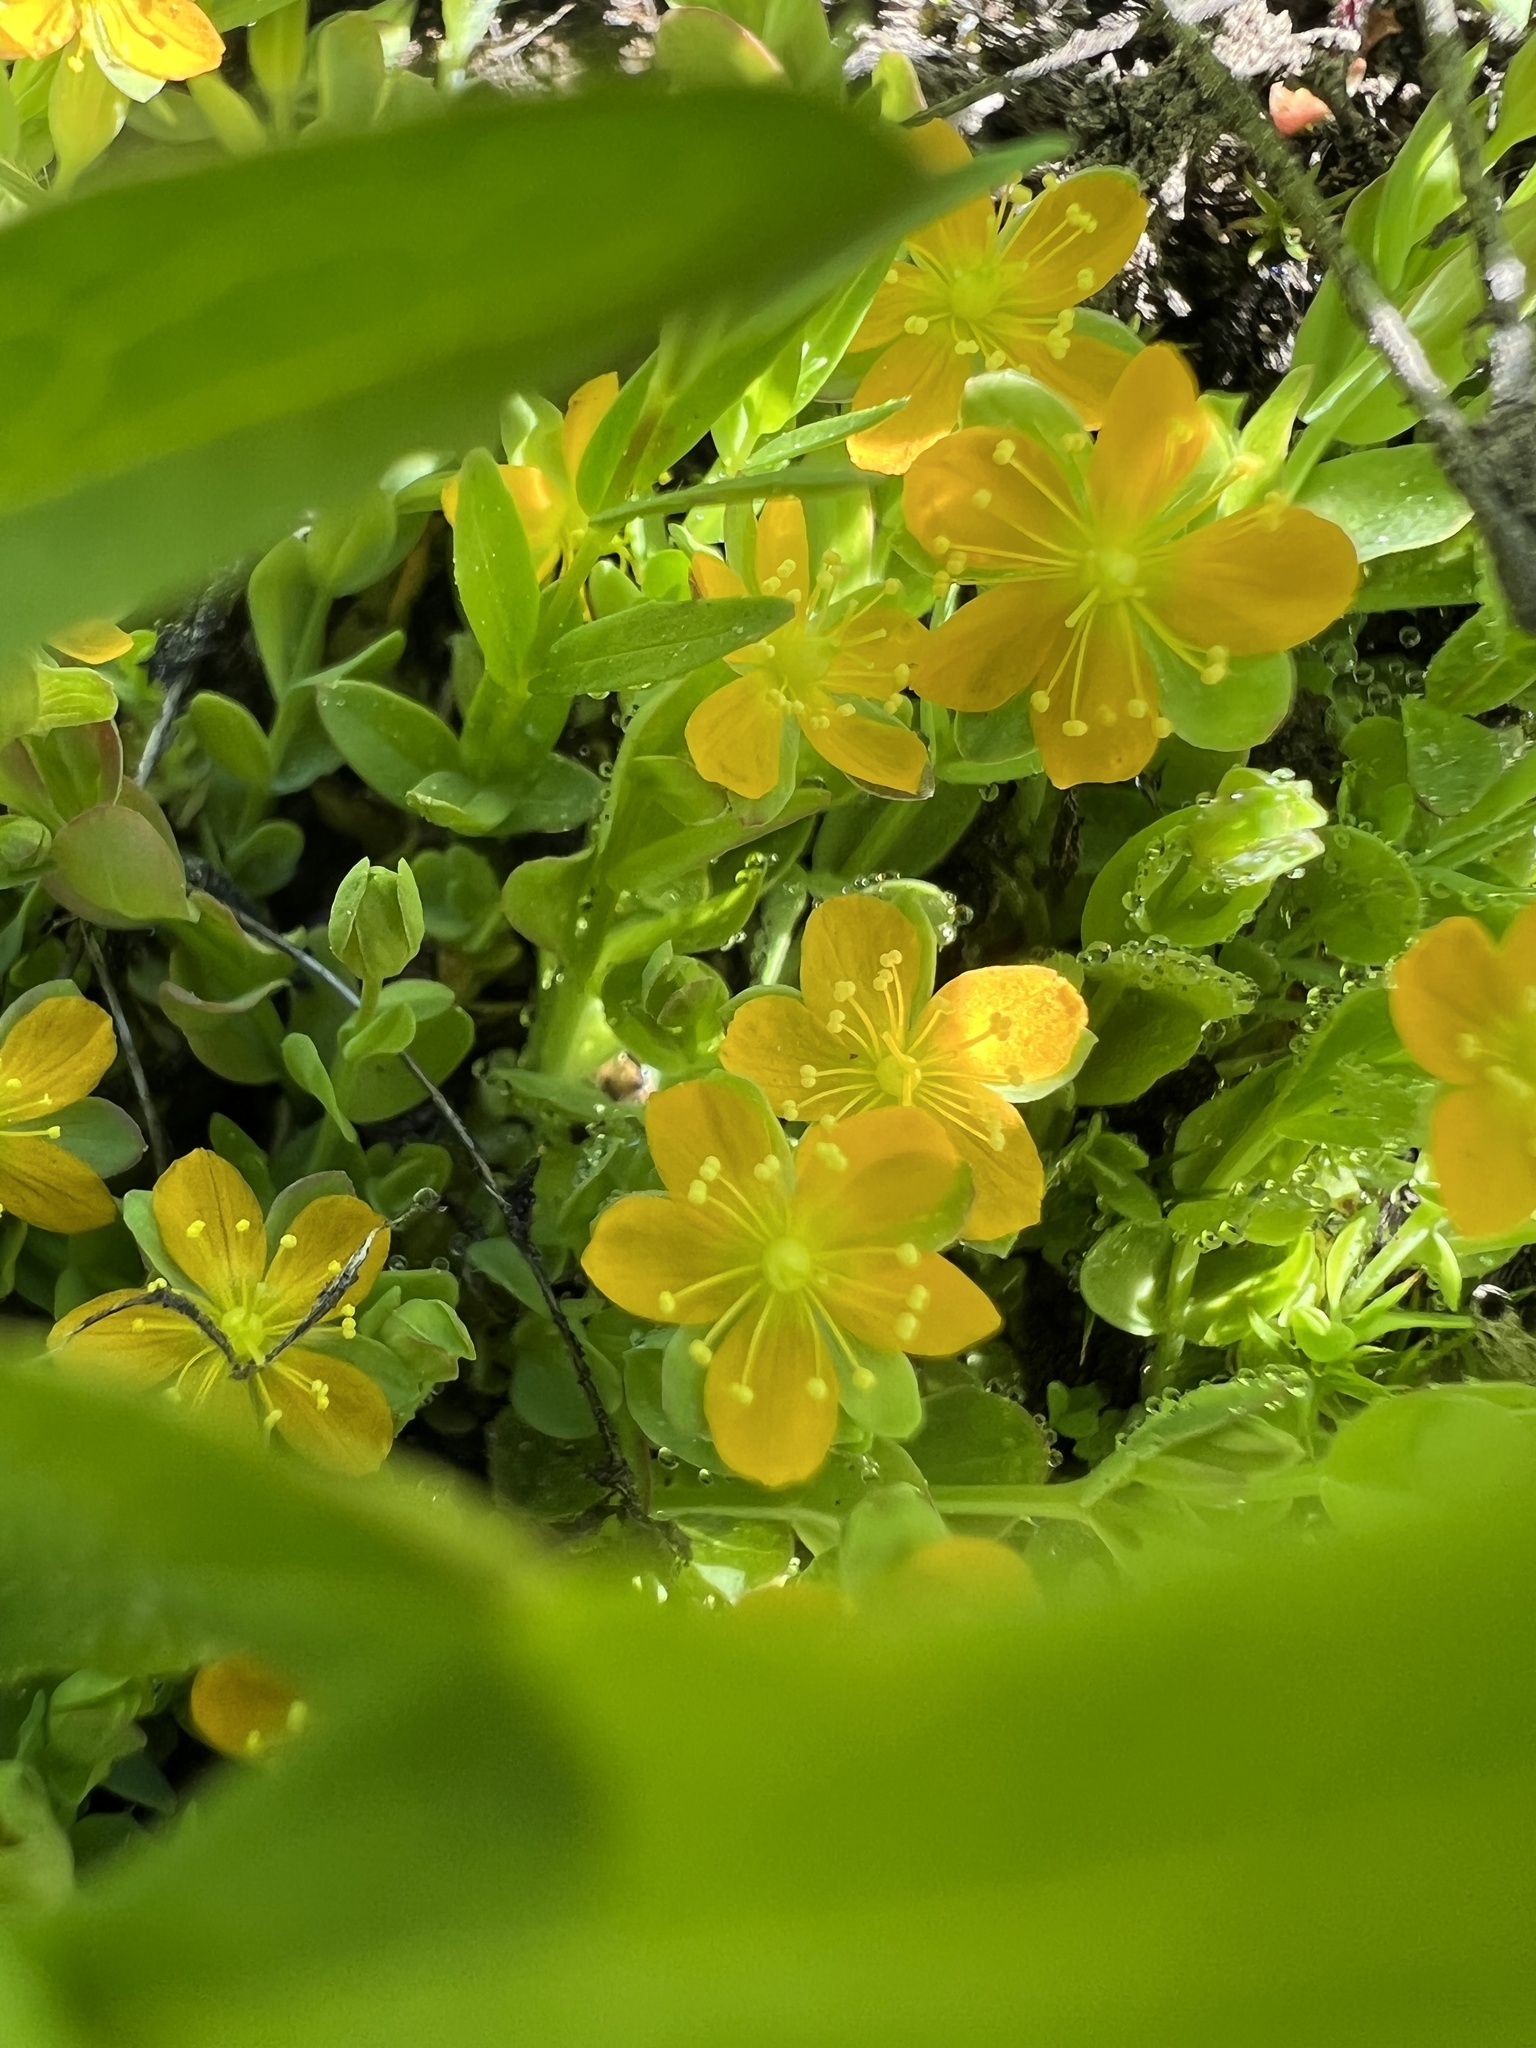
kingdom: Plantae
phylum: Tracheophyta
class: Magnoliopsida
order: Malpighiales
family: Hypericaceae
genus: Hypericum
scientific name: Hypericum anagalloides
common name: Bog st. john's-wort
